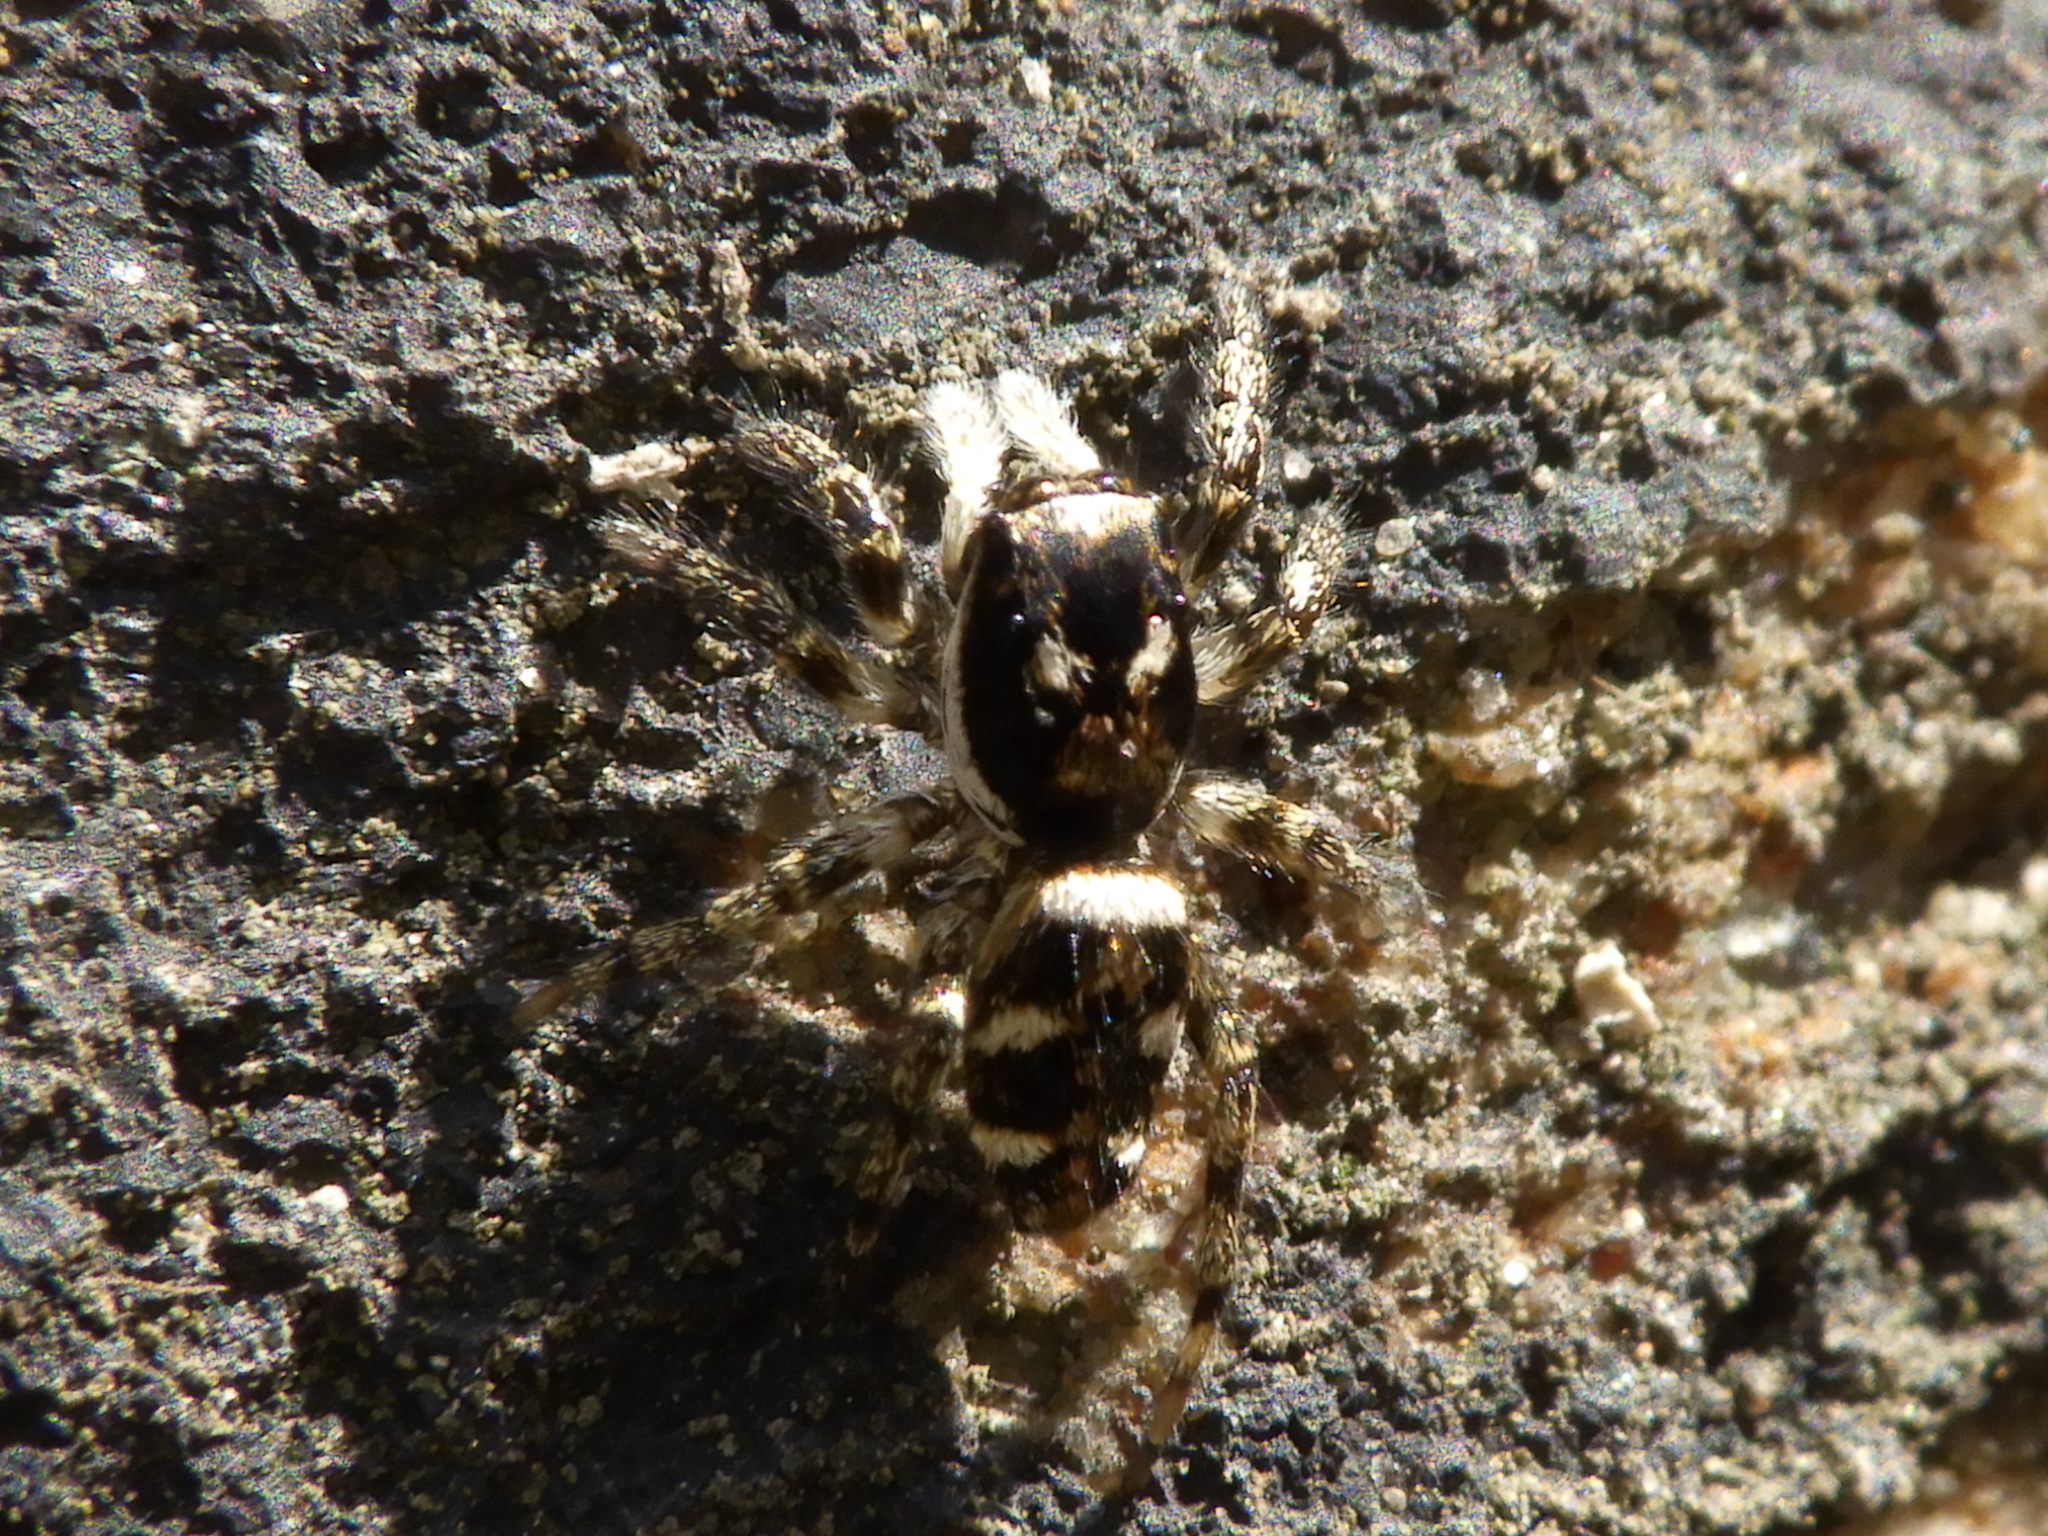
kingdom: Animalia
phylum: Arthropoda
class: Arachnida
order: Araneae
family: Salticidae
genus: Salticus
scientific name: Salticus scenicus
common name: Zebra jumper
